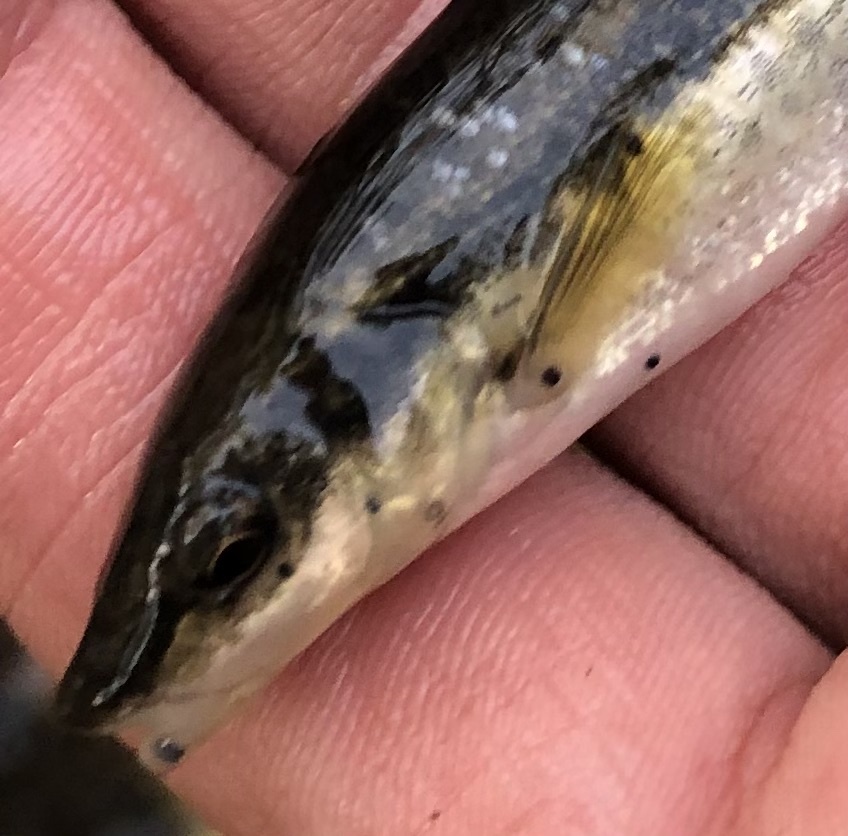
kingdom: Animalia
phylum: Platyhelminthes
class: Trematoda
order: Diplostomida
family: Diplostomidae
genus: Neascus
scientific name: Neascus
